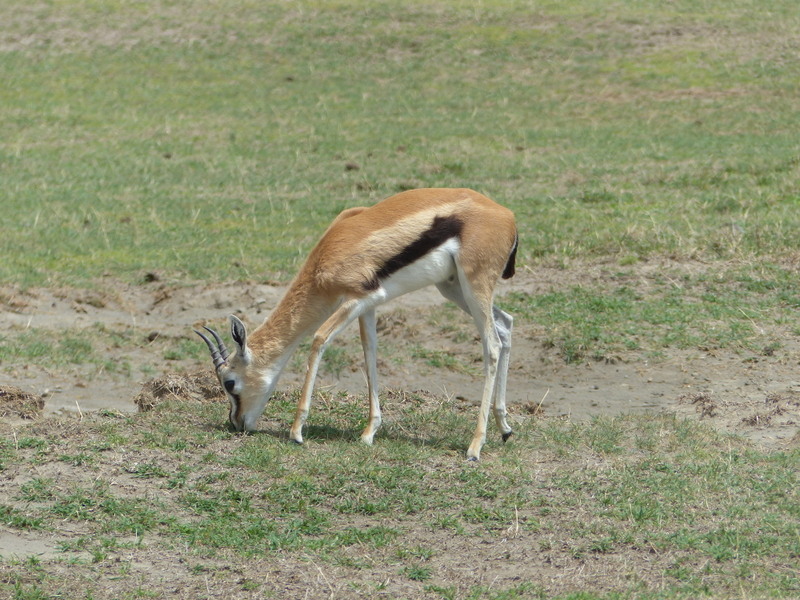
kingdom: Animalia
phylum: Chordata
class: Mammalia
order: Artiodactyla
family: Bovidae
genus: Eudorcas
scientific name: Eudorcas thomsonii
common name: Thomson's gazelle
